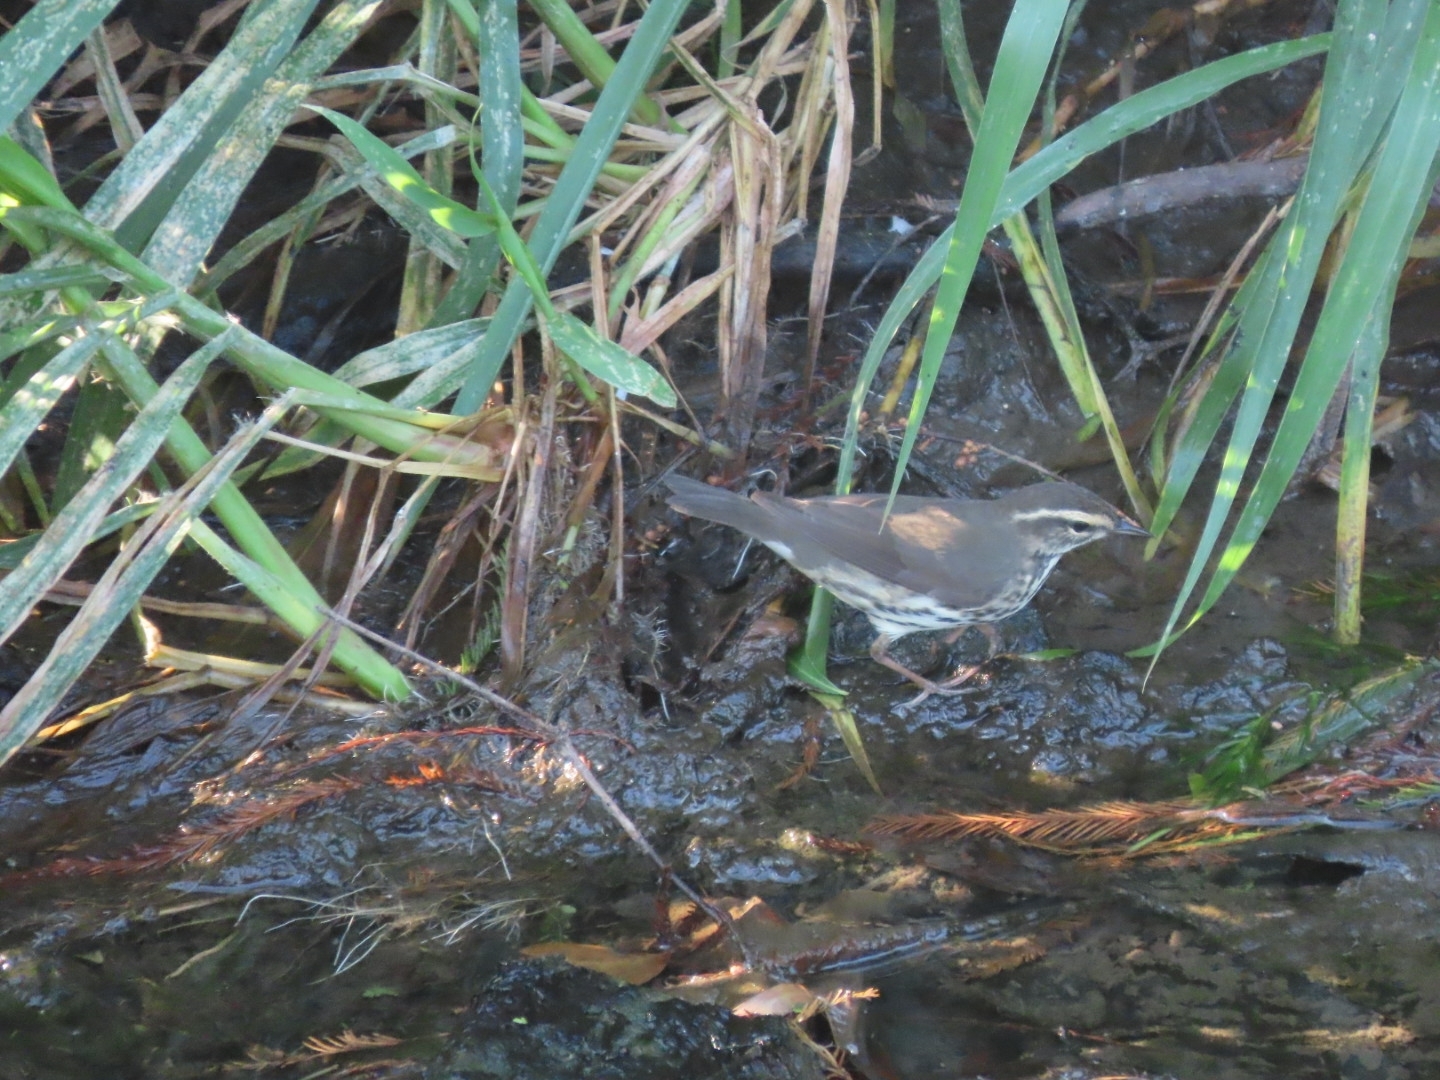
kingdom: Animalia
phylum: Chordata
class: Aves
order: Passeriformes
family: Parulidae
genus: Parkesia
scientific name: Parkesia noveboracensis
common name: Northern waterthrush
